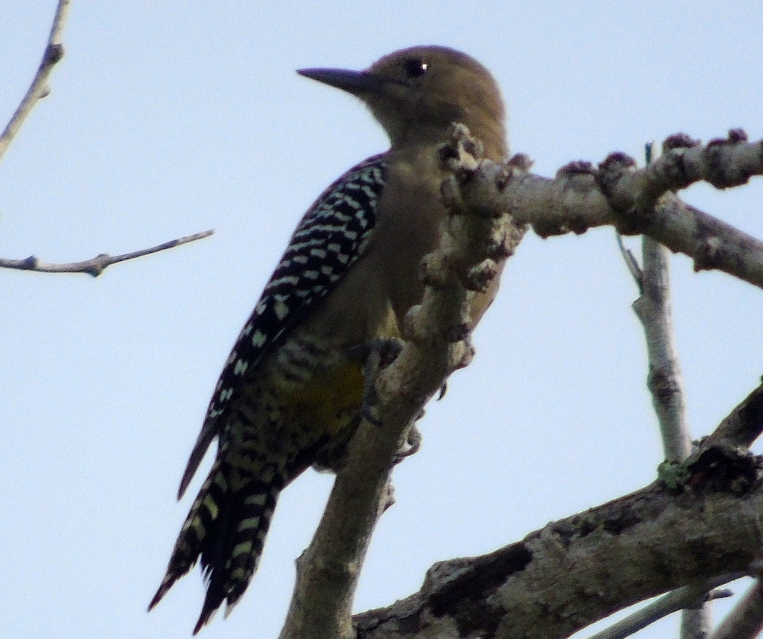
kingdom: Animalia
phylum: Chordata
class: Aves
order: Piciformes
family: Picidae
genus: Melanerpes
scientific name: Melanerpes uropygialis
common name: Gila woodpecker
